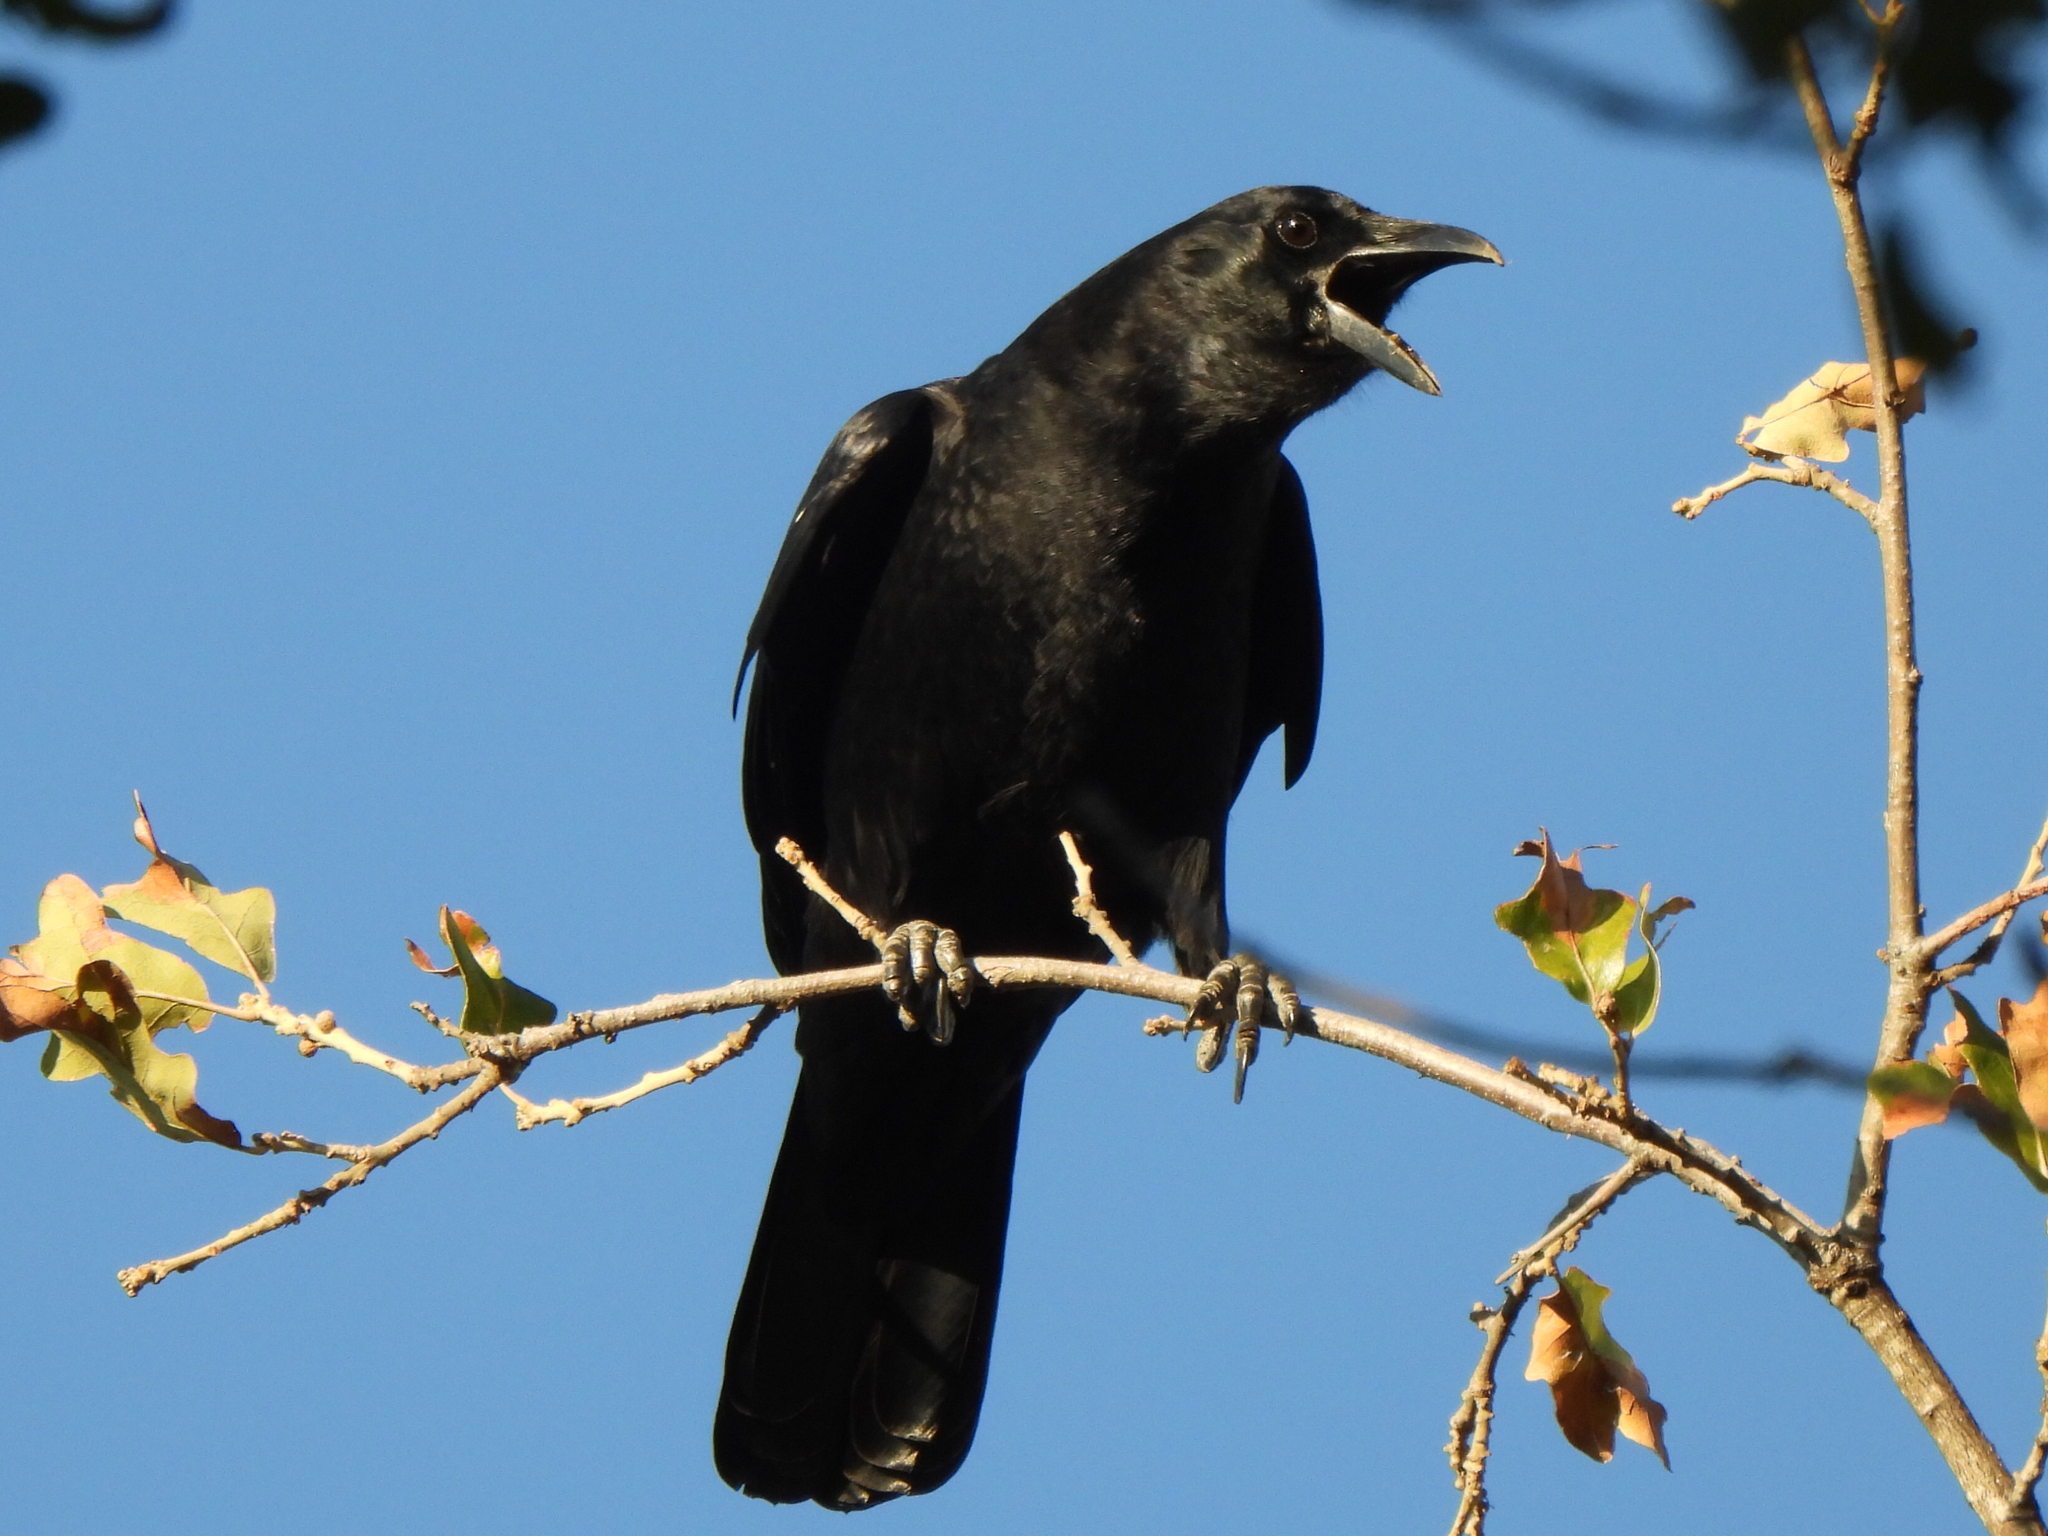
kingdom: Animalia
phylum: Chordata
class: Aves
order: Passeriformes
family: Corvidae
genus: Corvus
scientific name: Corvus brachyrhynchos
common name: American crow
